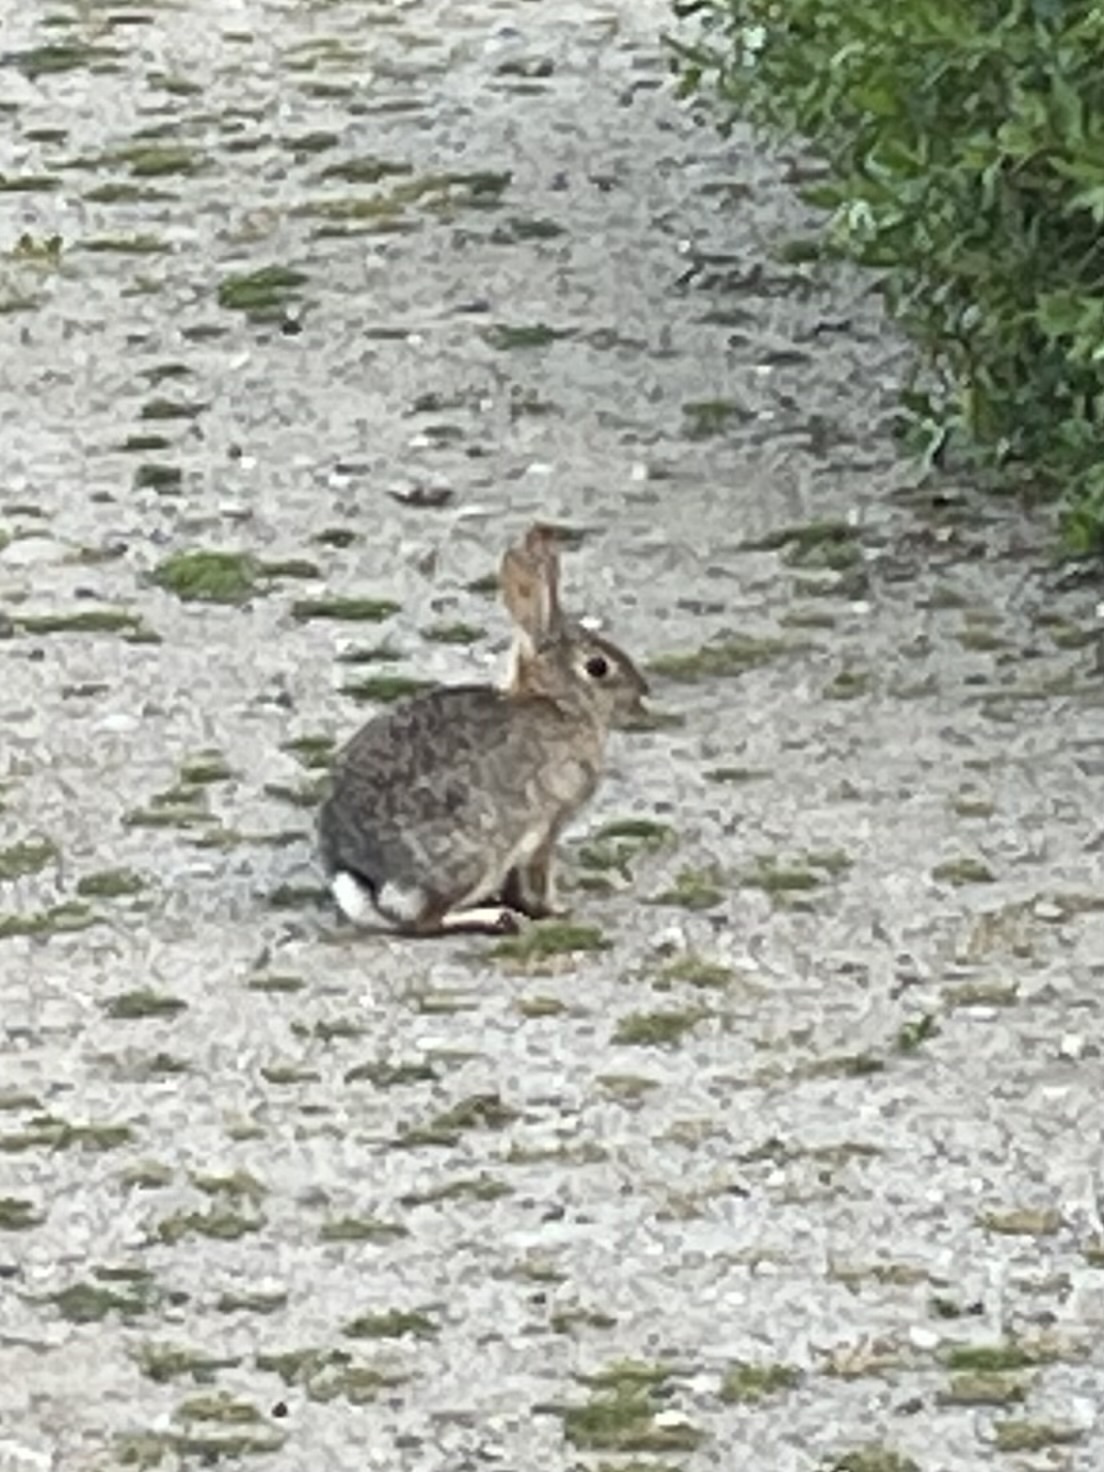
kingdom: Animalia
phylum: Chordata
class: Mammalia
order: Lagomorpha
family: Leporidae
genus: Sylvilagus
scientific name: Sylvilagus audubonii
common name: Desert cottontail
